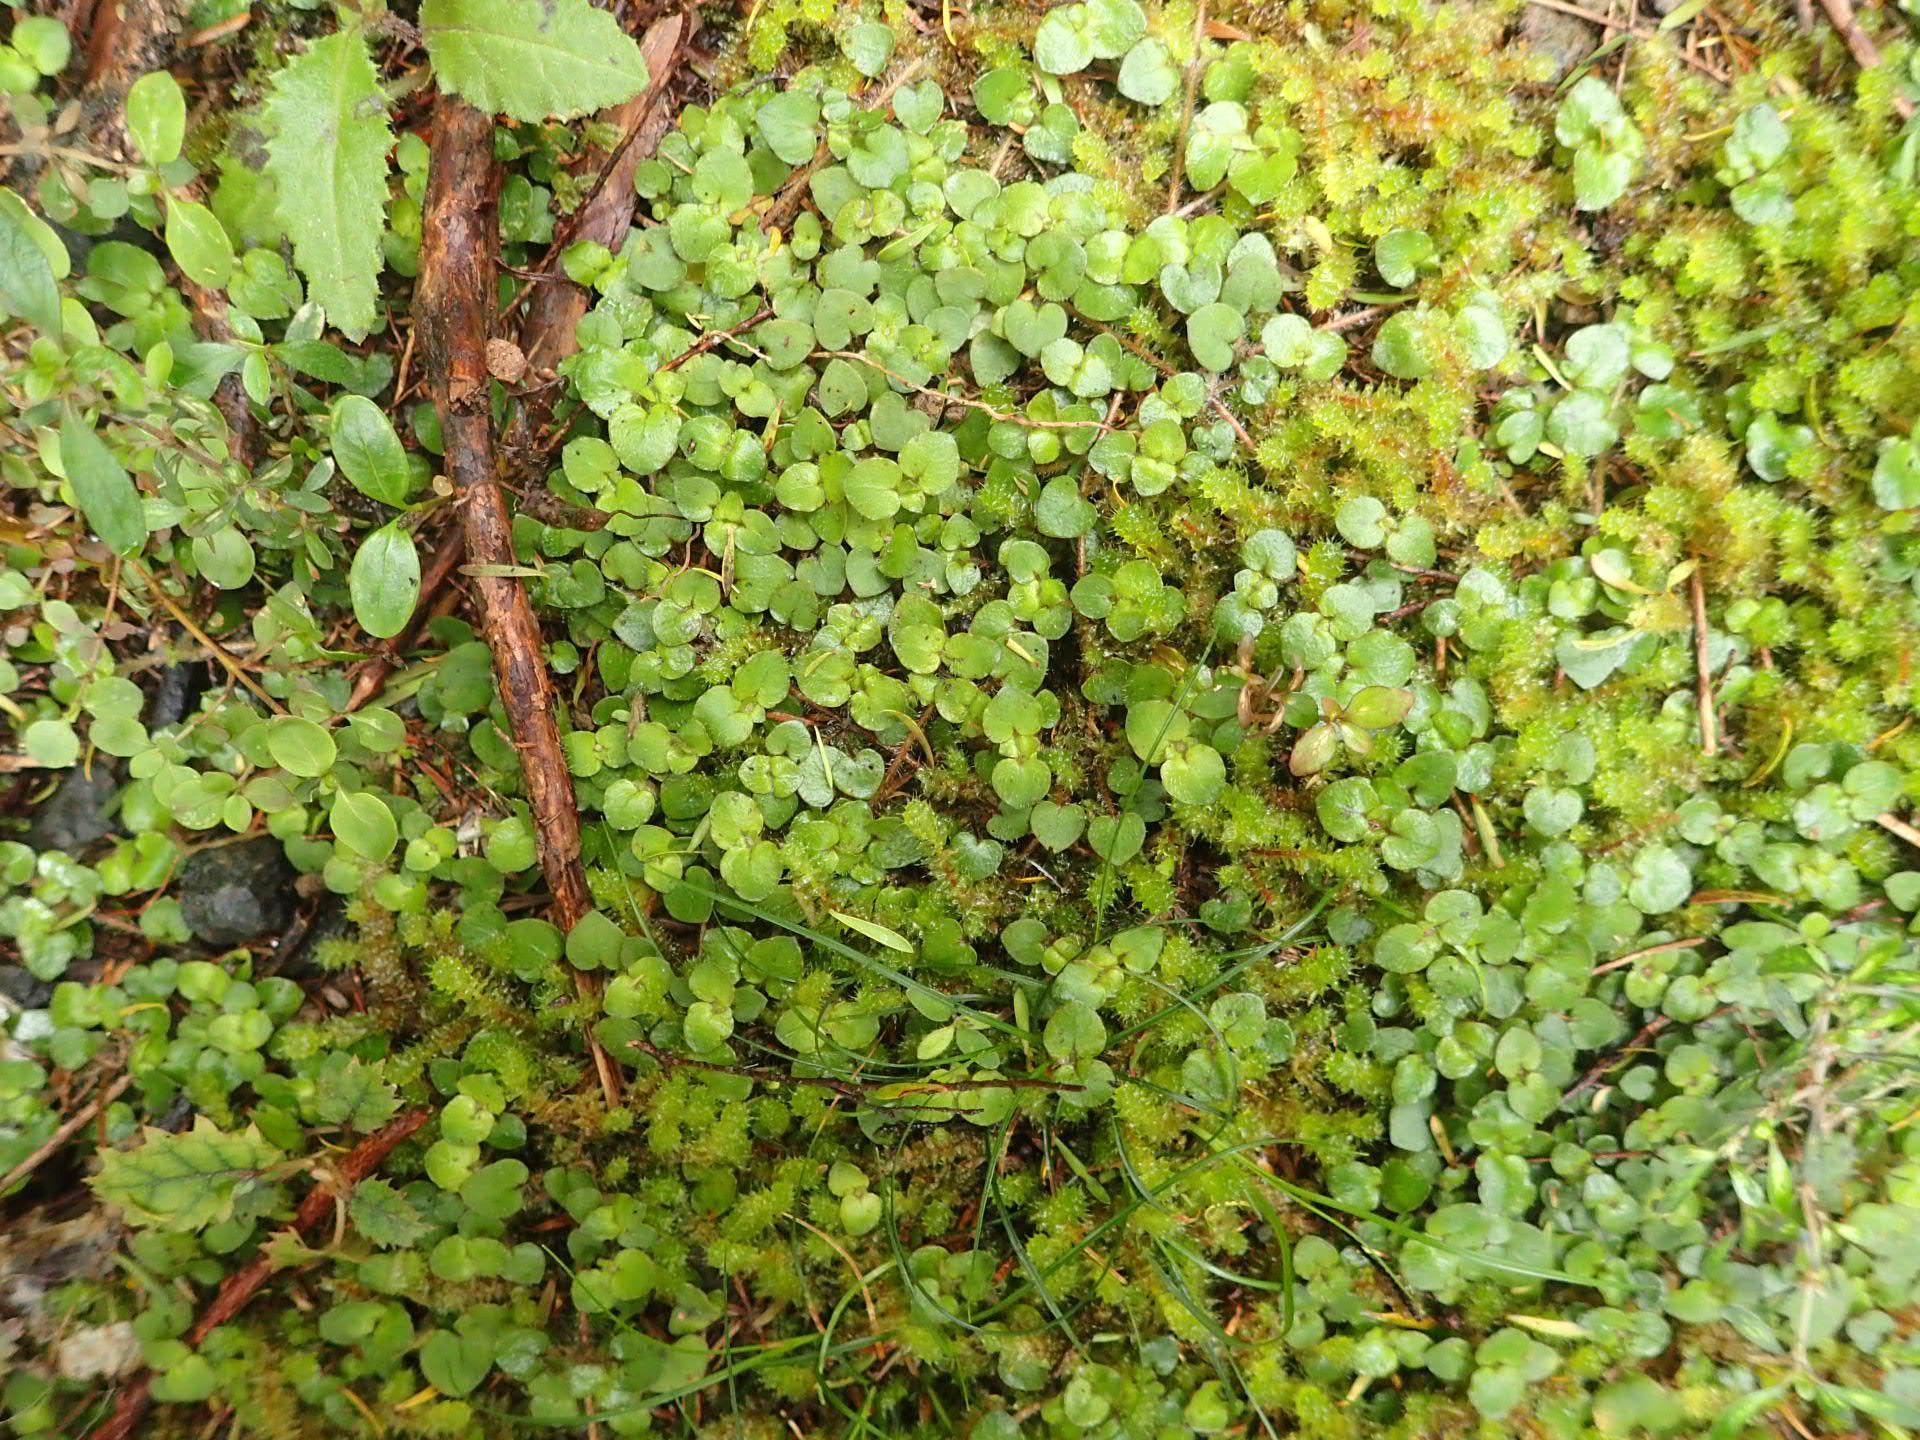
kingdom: Plantae
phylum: Tracheophyta
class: Magnoliopsida
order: Gentianales
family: Rubiaceae
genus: Nertera
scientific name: Nertera villosa
